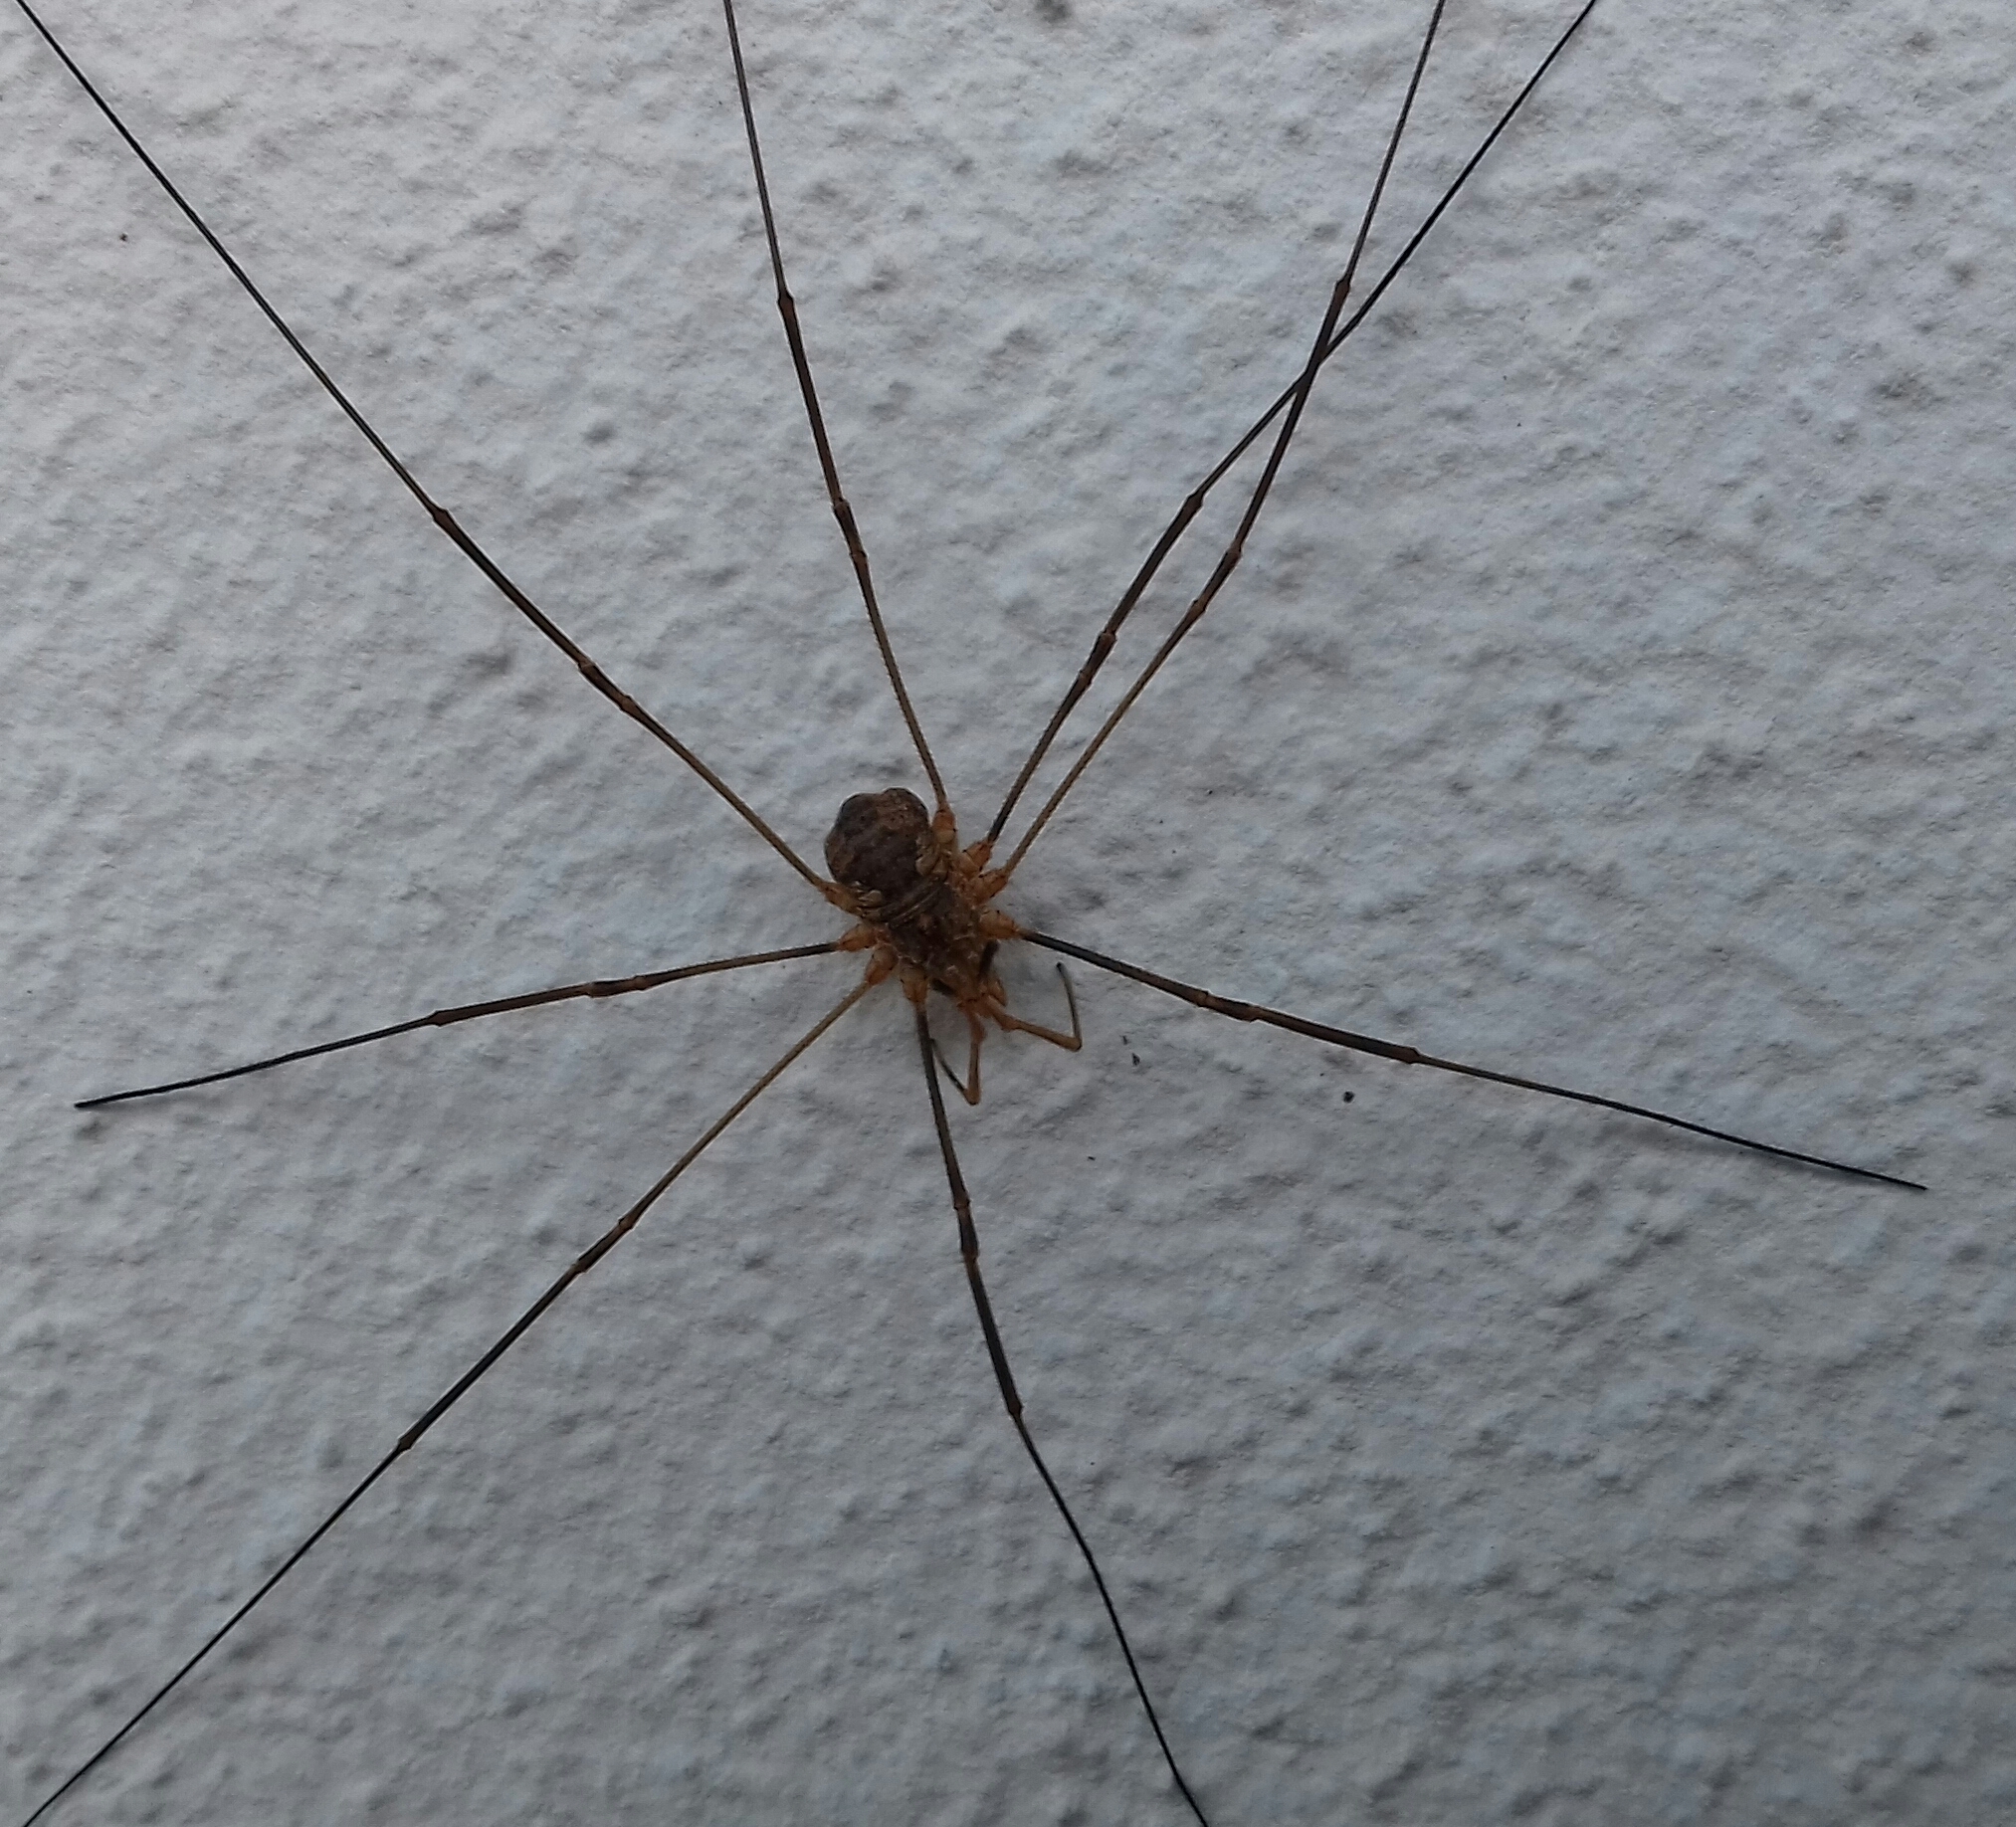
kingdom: Animalia
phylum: Arthropoda
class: Arachnida
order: Opiliones
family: Phalangiidae
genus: Phalangium
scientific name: Phalangium opilio
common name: Daddy longleg
